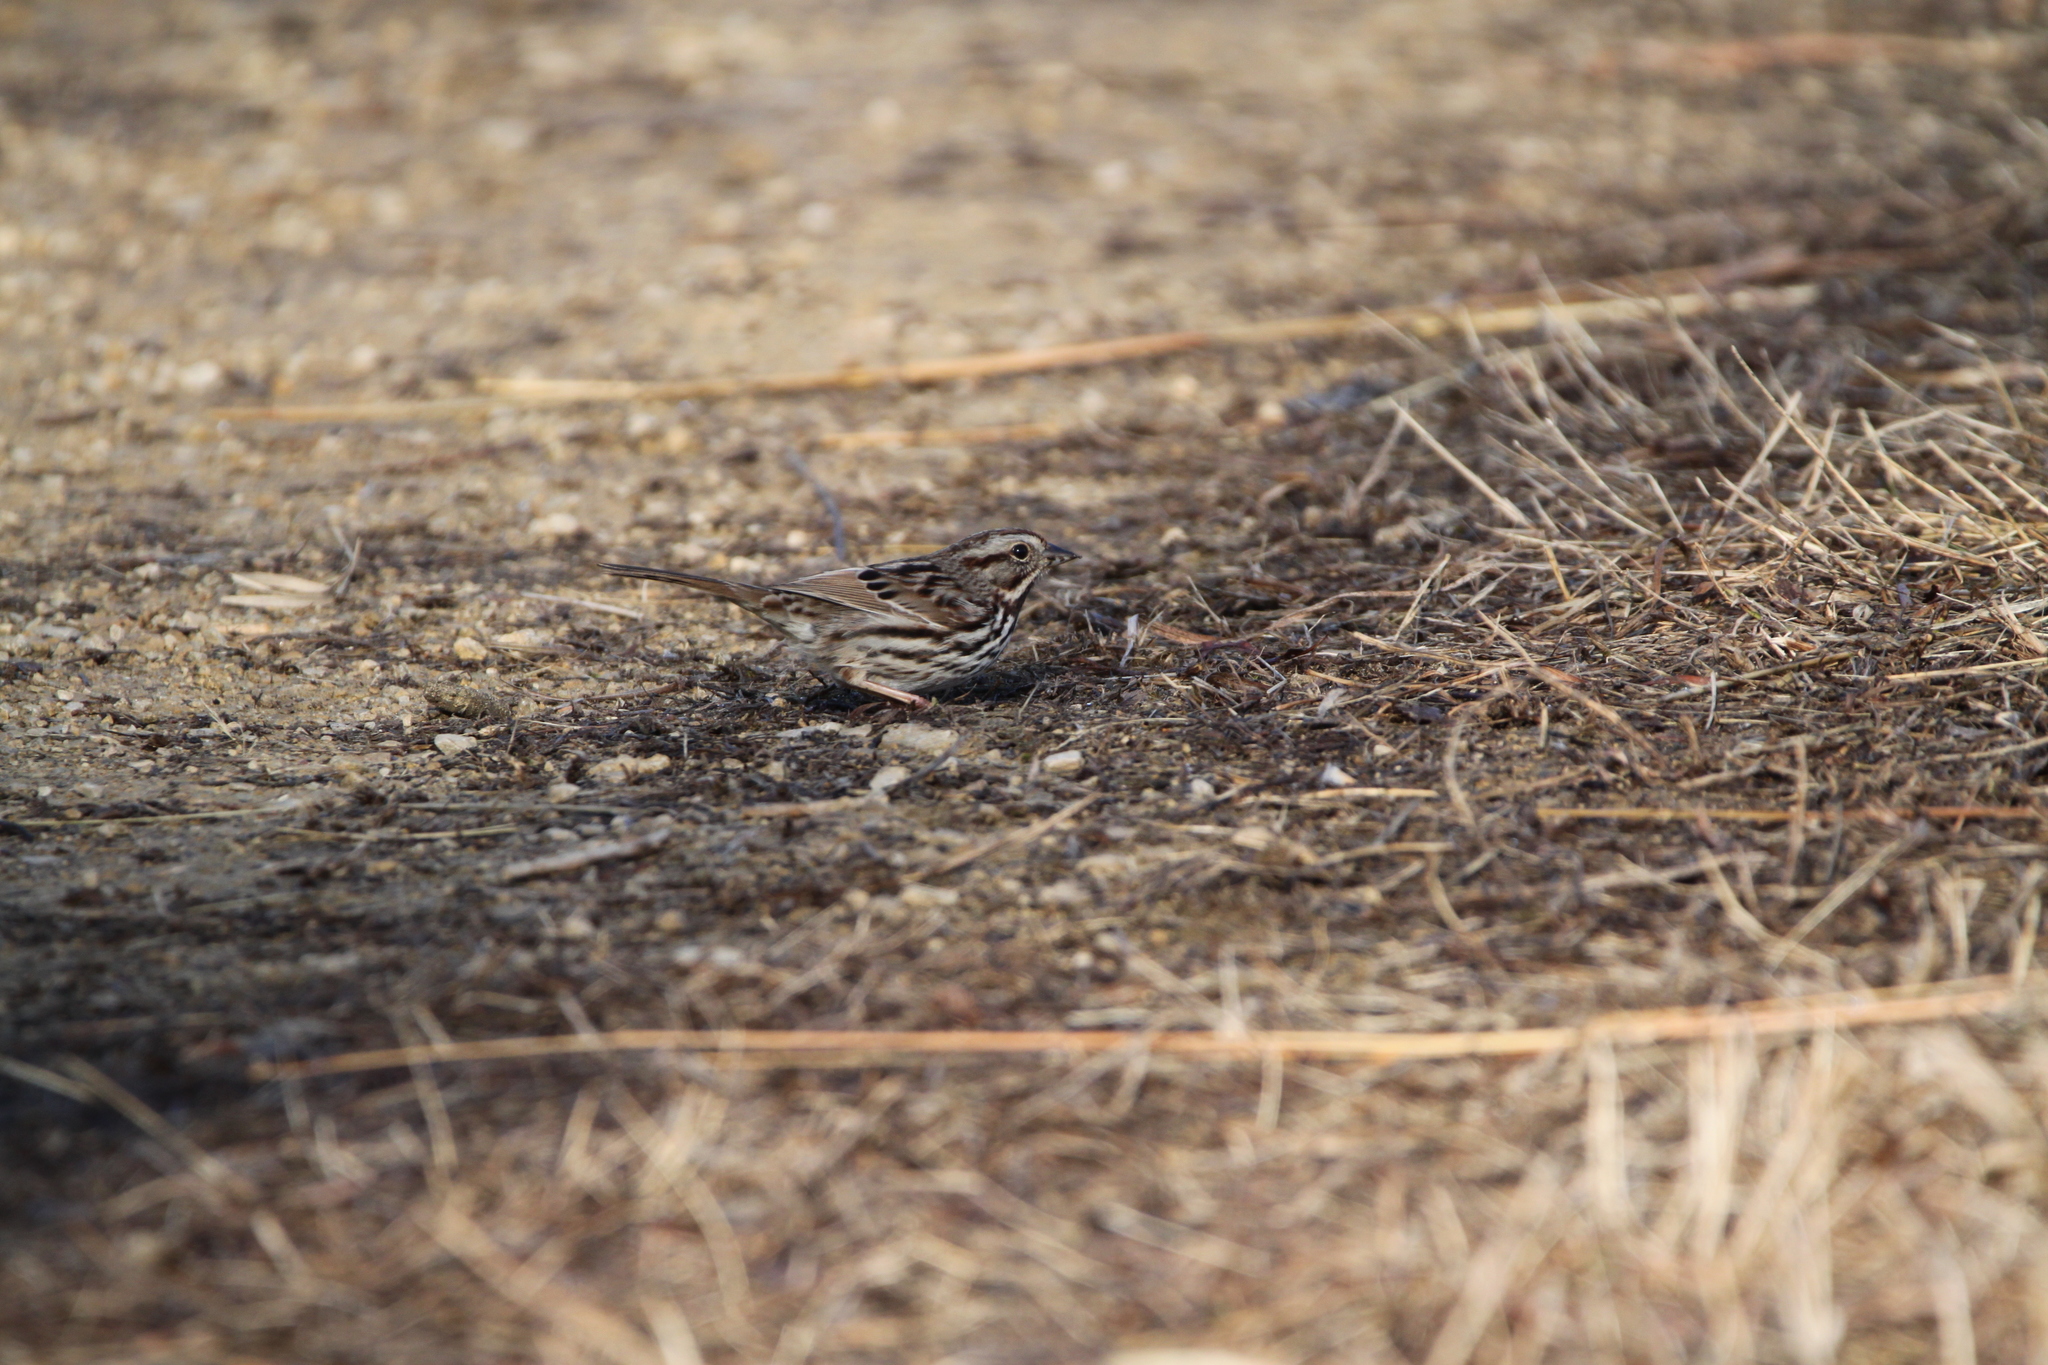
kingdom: Animalia
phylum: Chordata
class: Aves
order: Passeriformes
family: Passerellidae
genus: Melospiza
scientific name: Melospiza melodia
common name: Song sparrow
